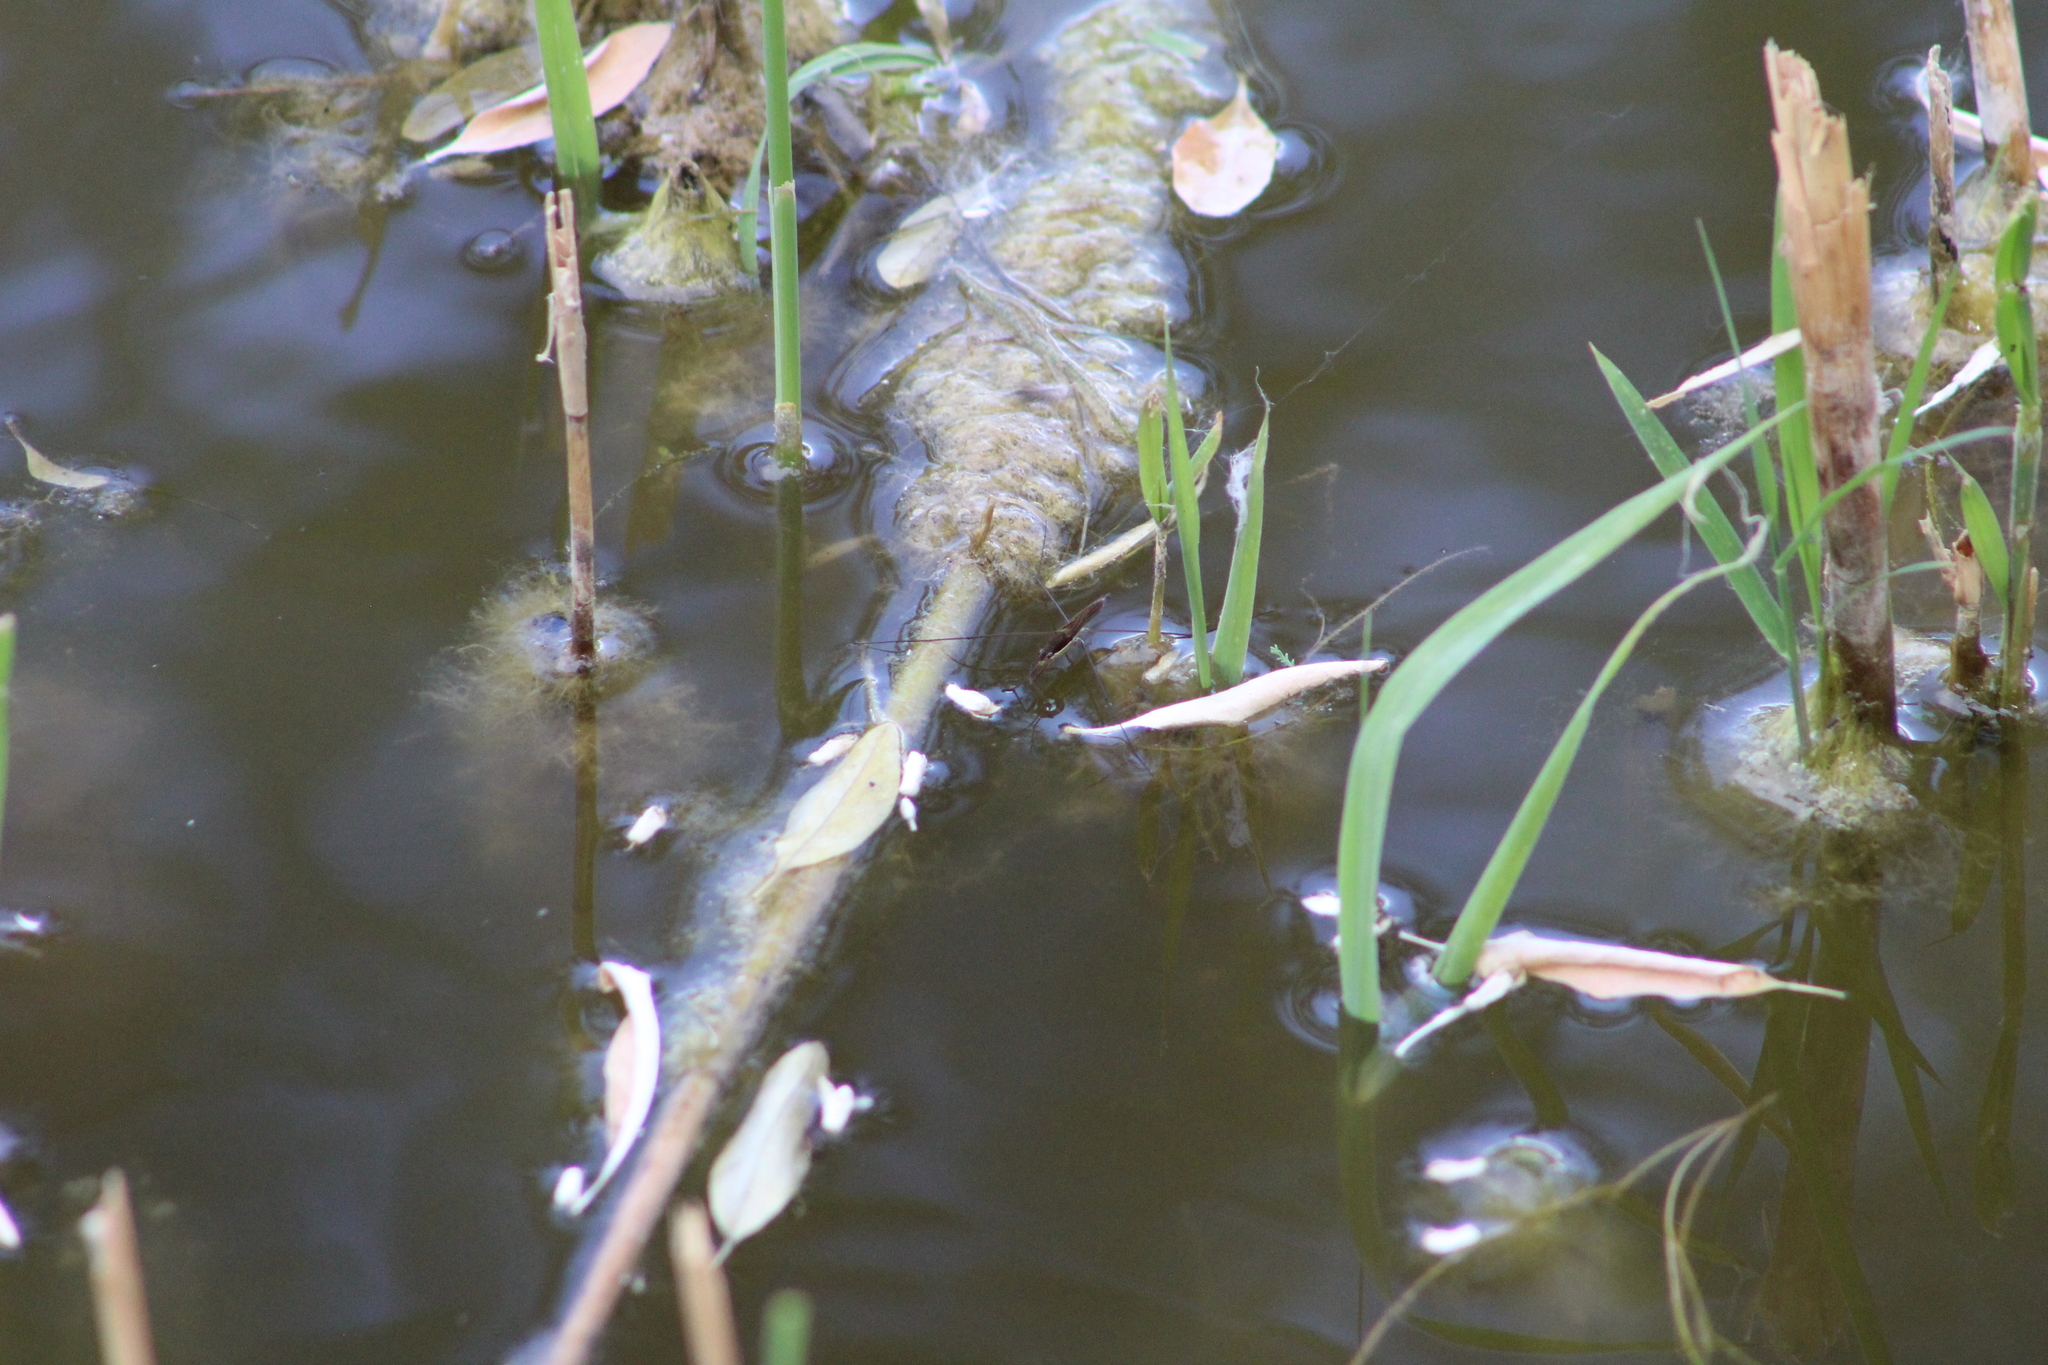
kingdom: Animalia
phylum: Arthropoda
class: Insecta
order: Hemiptera
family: Gerridae
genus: Limnoporus
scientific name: Limnoporus notabilis
